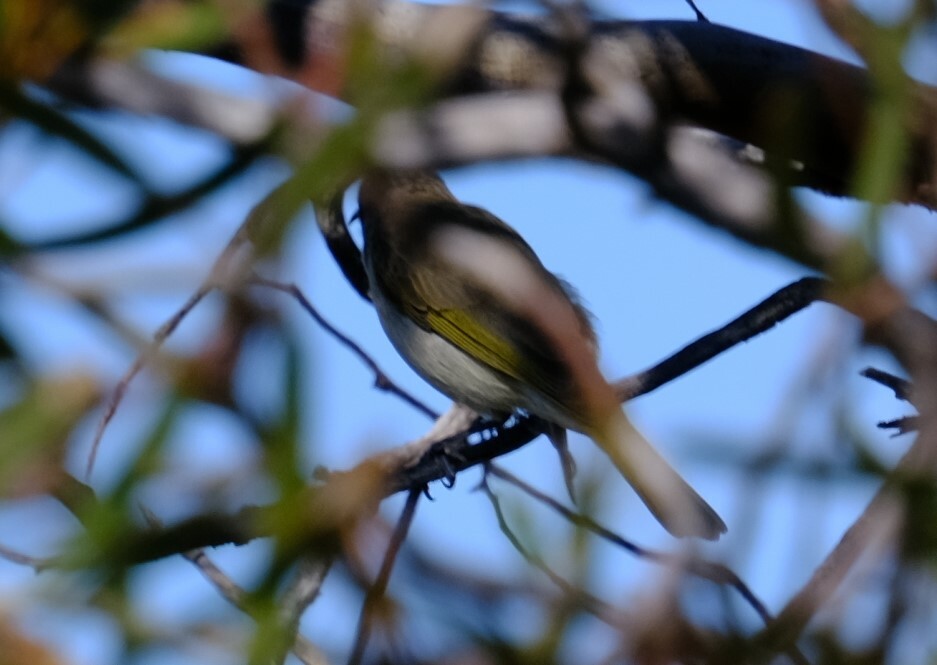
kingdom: Animalia
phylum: Chordata
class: Aves
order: Passeriformes
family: Meliphagidae
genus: Lichmera
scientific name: Lichmera indistincta
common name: Brown honeyeater
